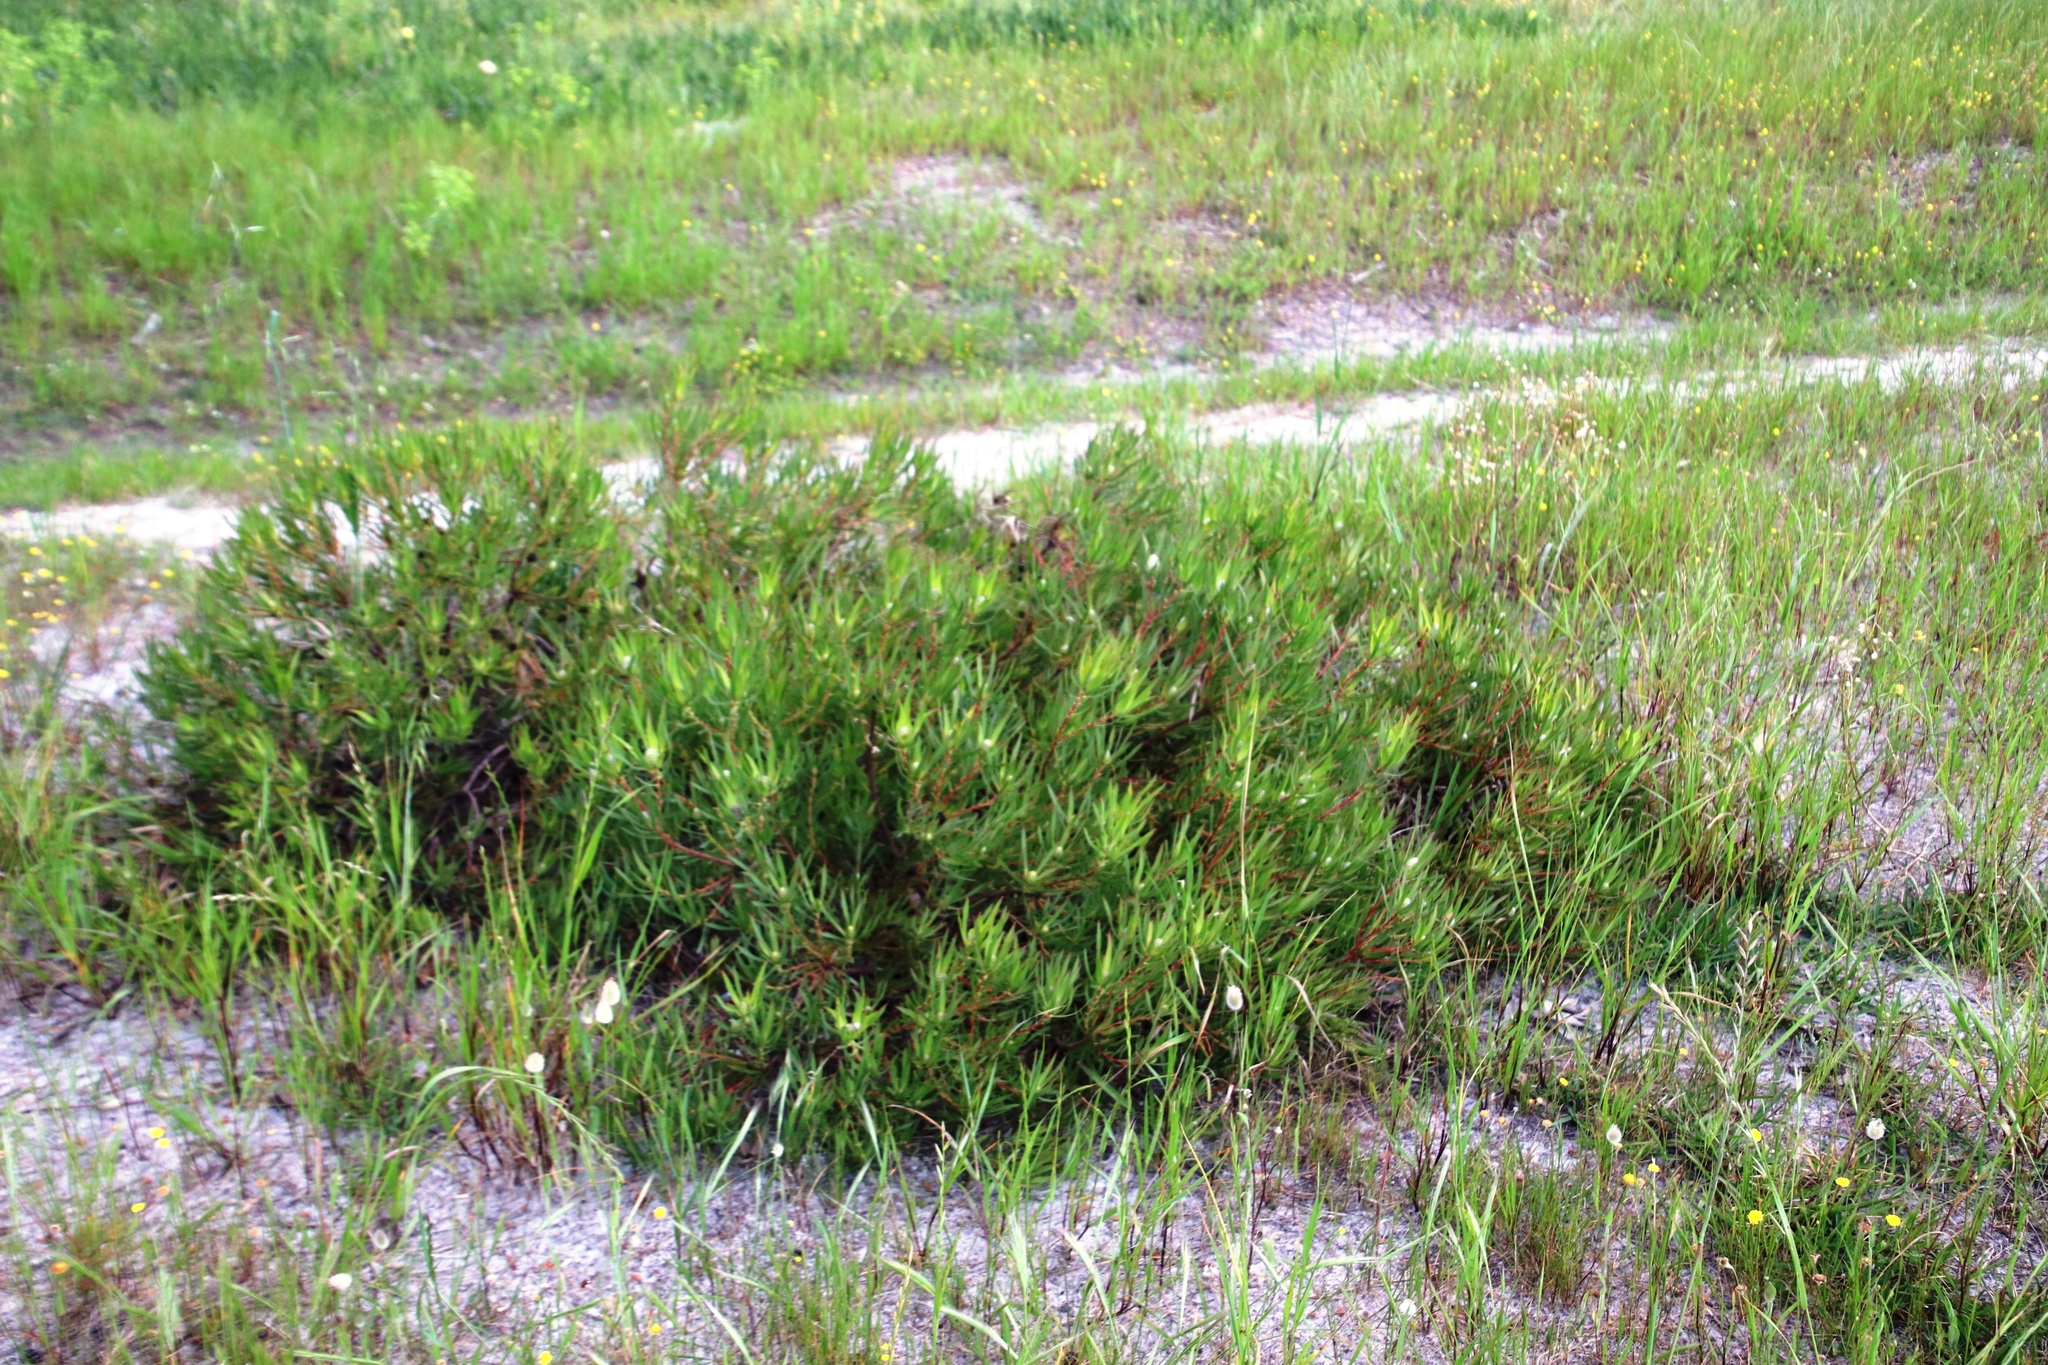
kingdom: Plantae
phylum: Tracheophyta
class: Magnoliopsida
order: Proteales
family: Proteaceae
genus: Leucadendron
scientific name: Leucadendron salignum
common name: Common sunshine conebush
